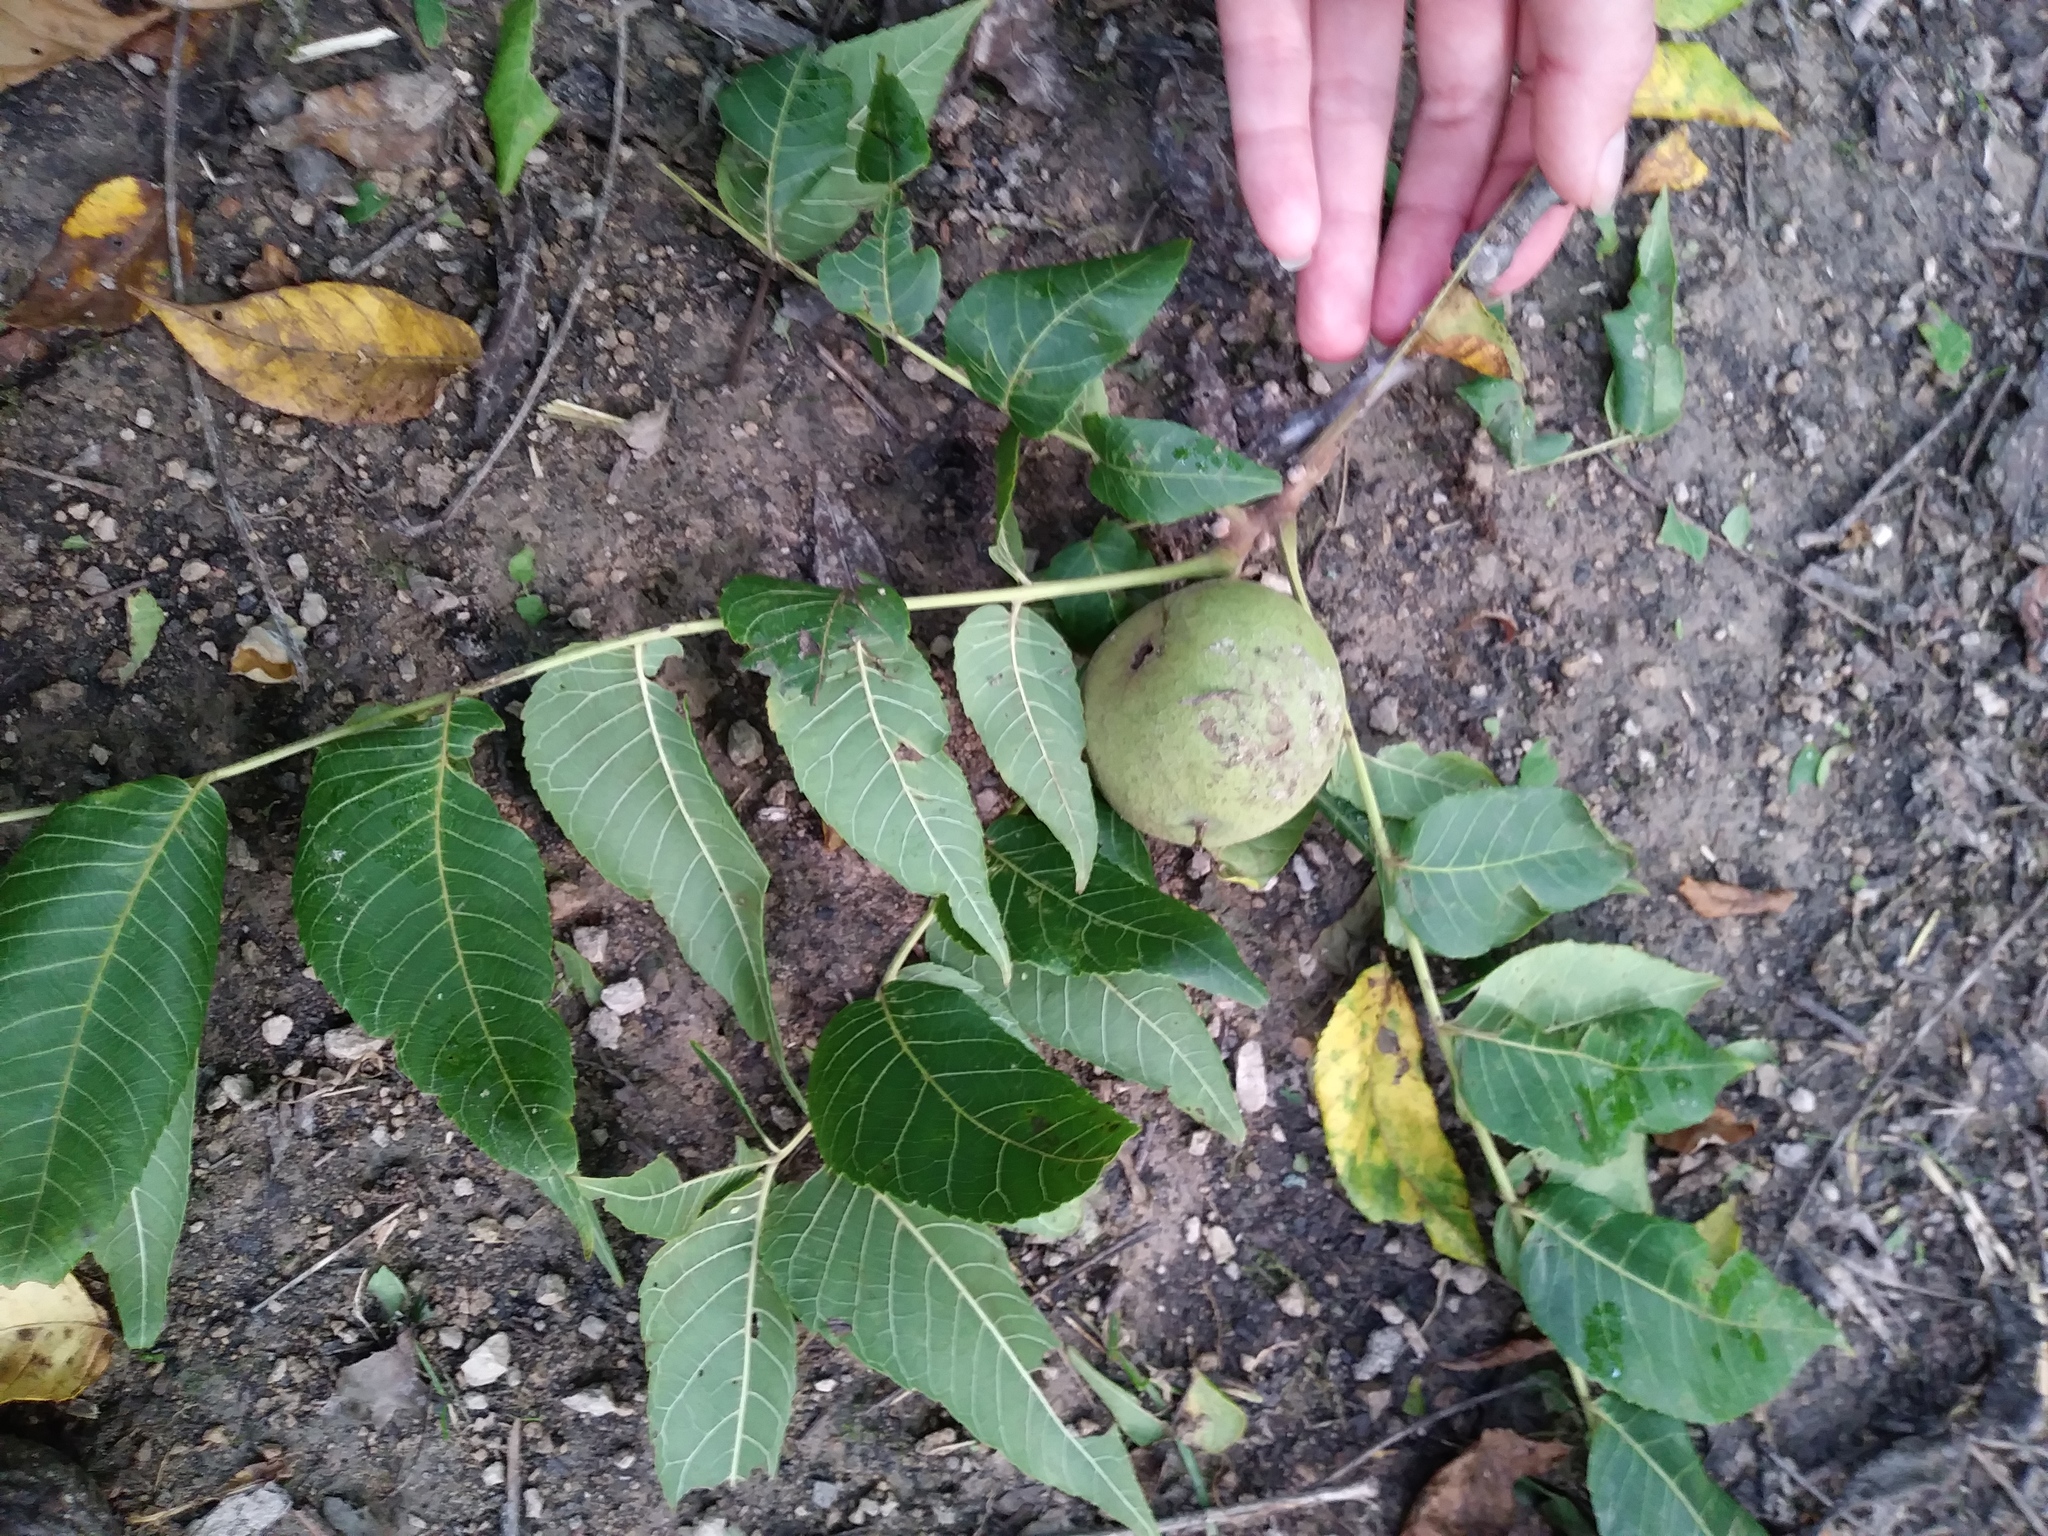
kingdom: Plantae
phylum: Tracheophyta
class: Magnoliopsida
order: Fagales
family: Juglandaceae
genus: Juglans
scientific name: Juglans nigra
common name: Black walnut
